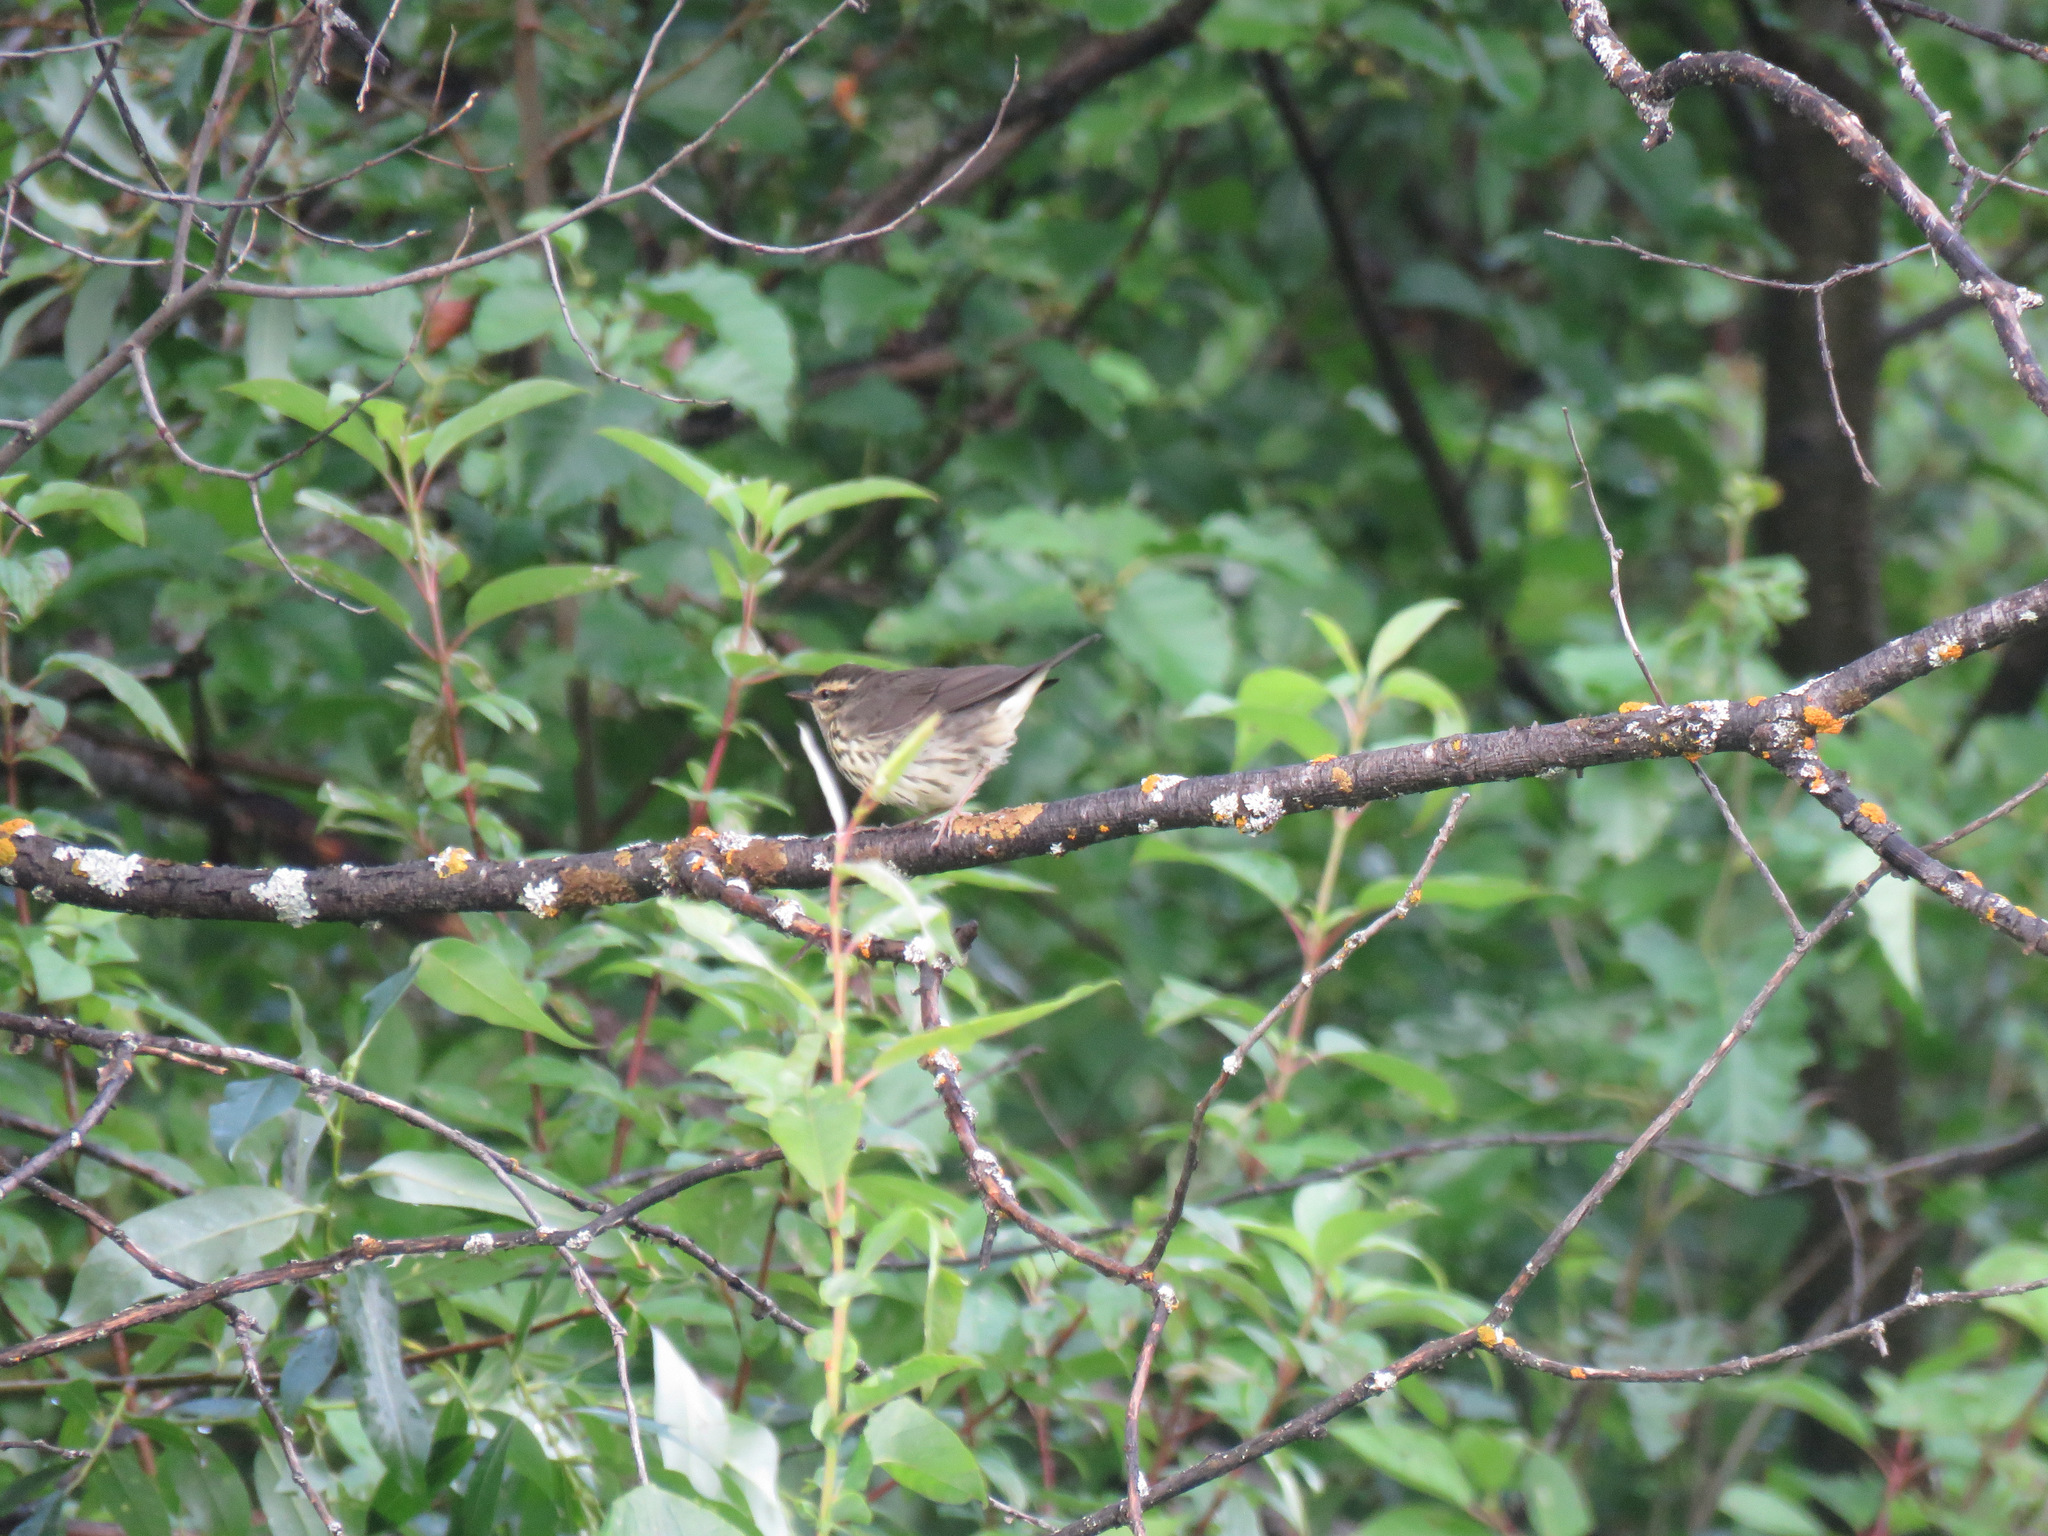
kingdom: Animalia
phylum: Chordata
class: Aves
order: Passeriformes
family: Parulidae
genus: Parkesia
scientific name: Parkesia noveboracensis
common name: Northern waterthrush
